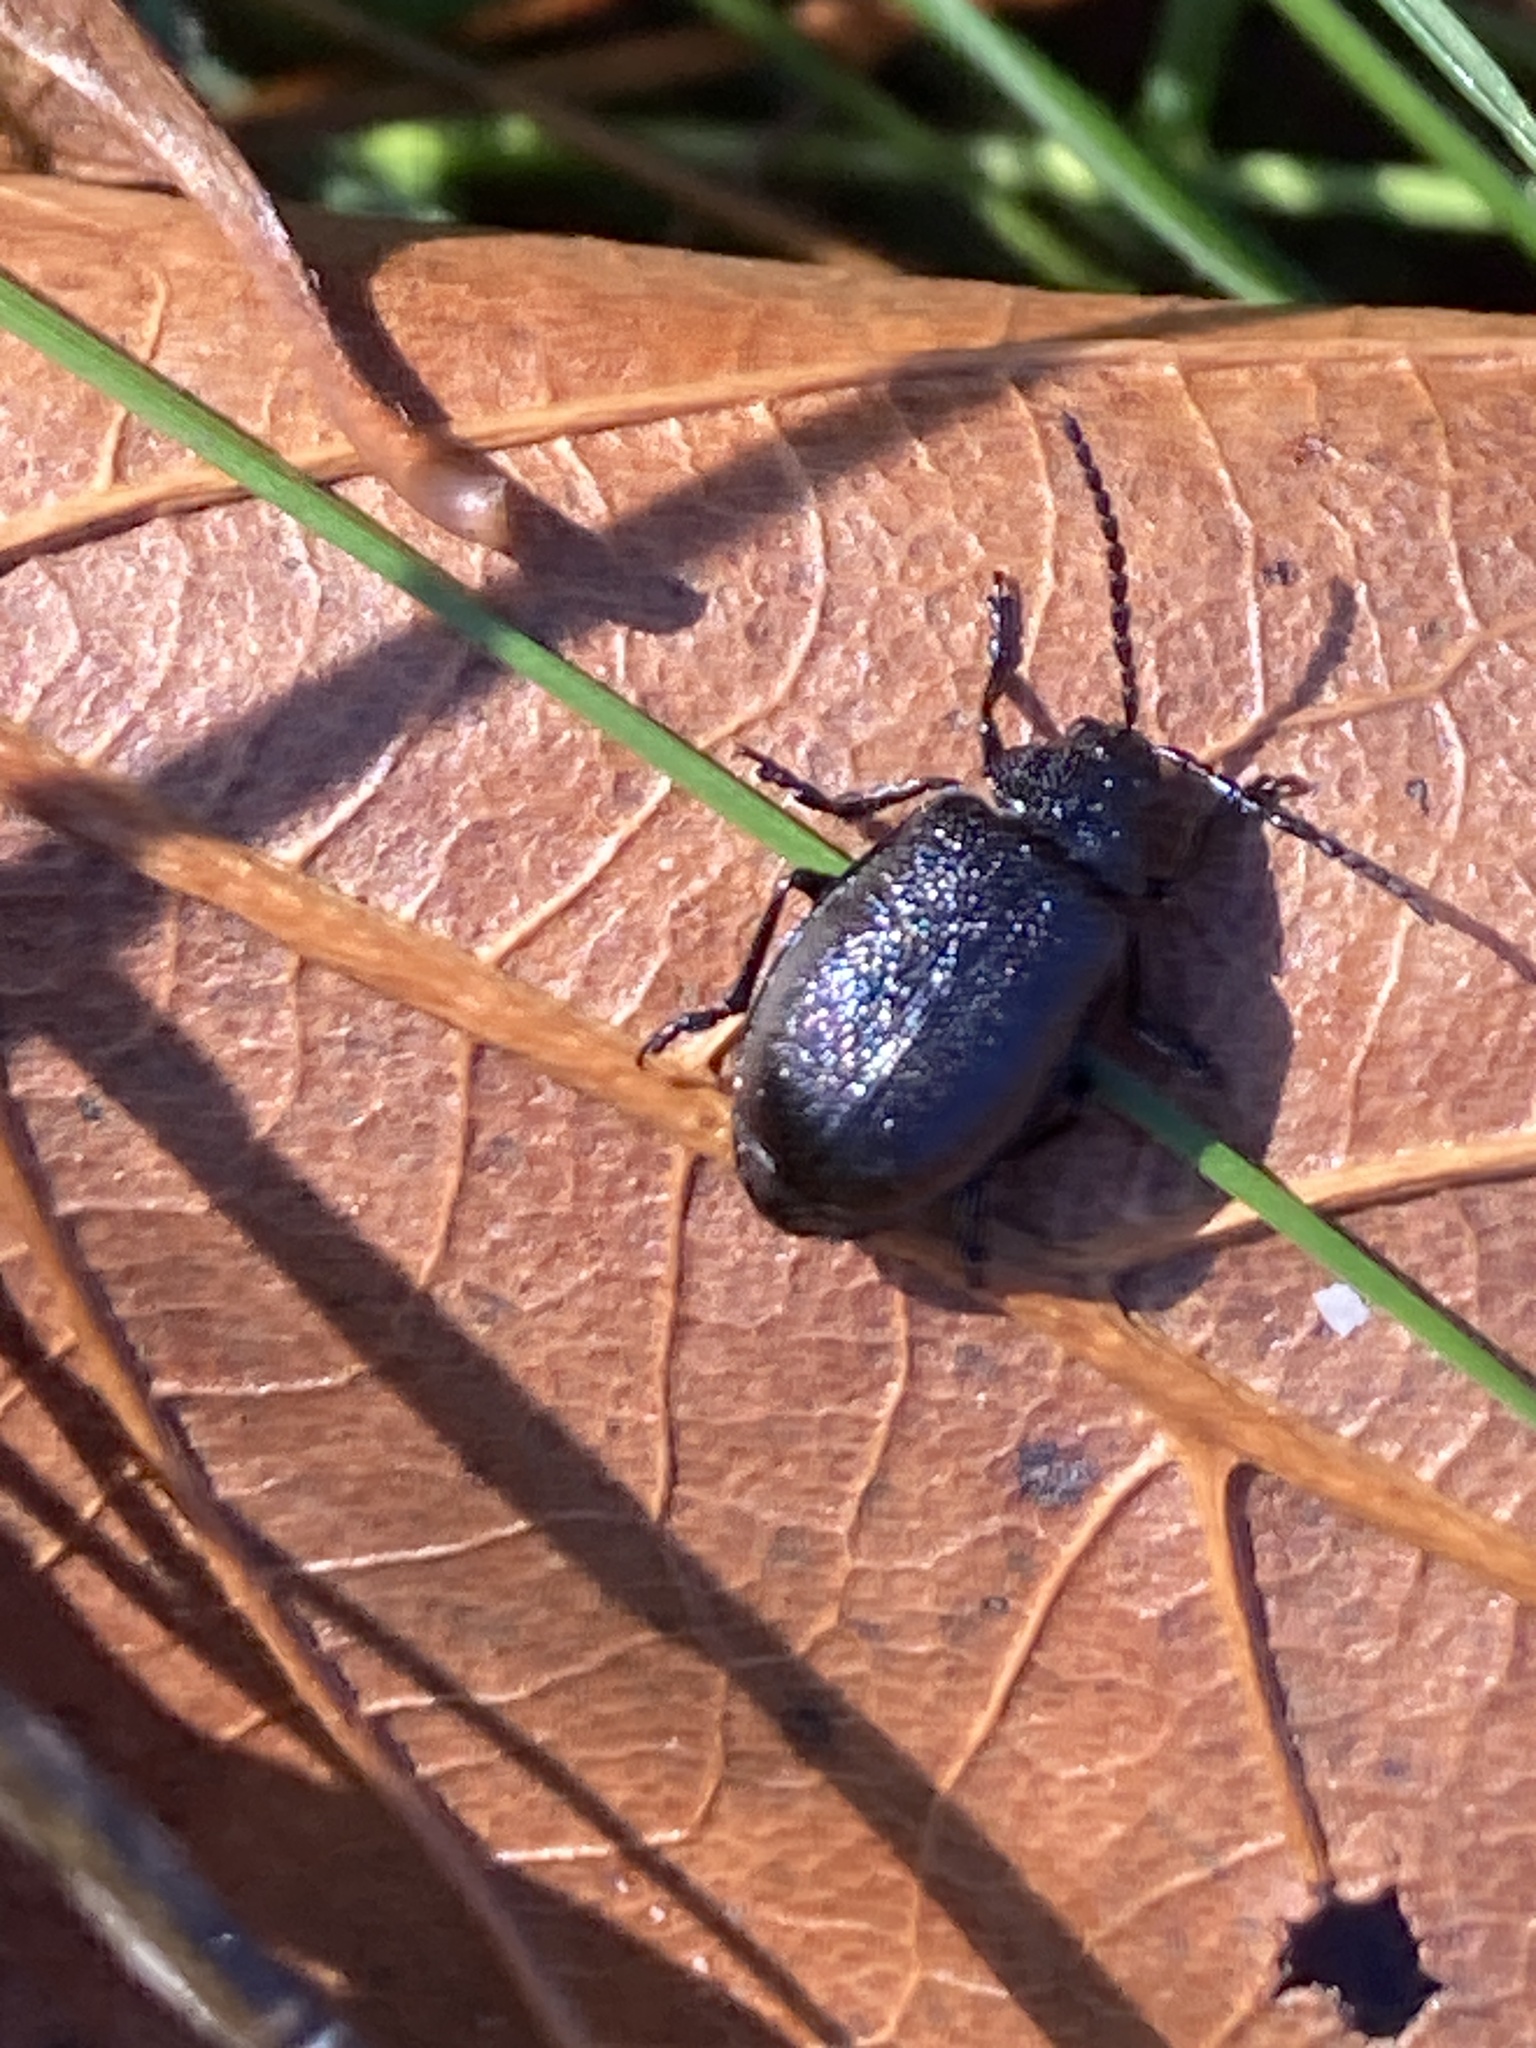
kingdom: Animalia
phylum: Arthropoda
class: Insecta
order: Coleoptera
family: Chrysomelidae
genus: Galeruca
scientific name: Galeruca tanaceti
